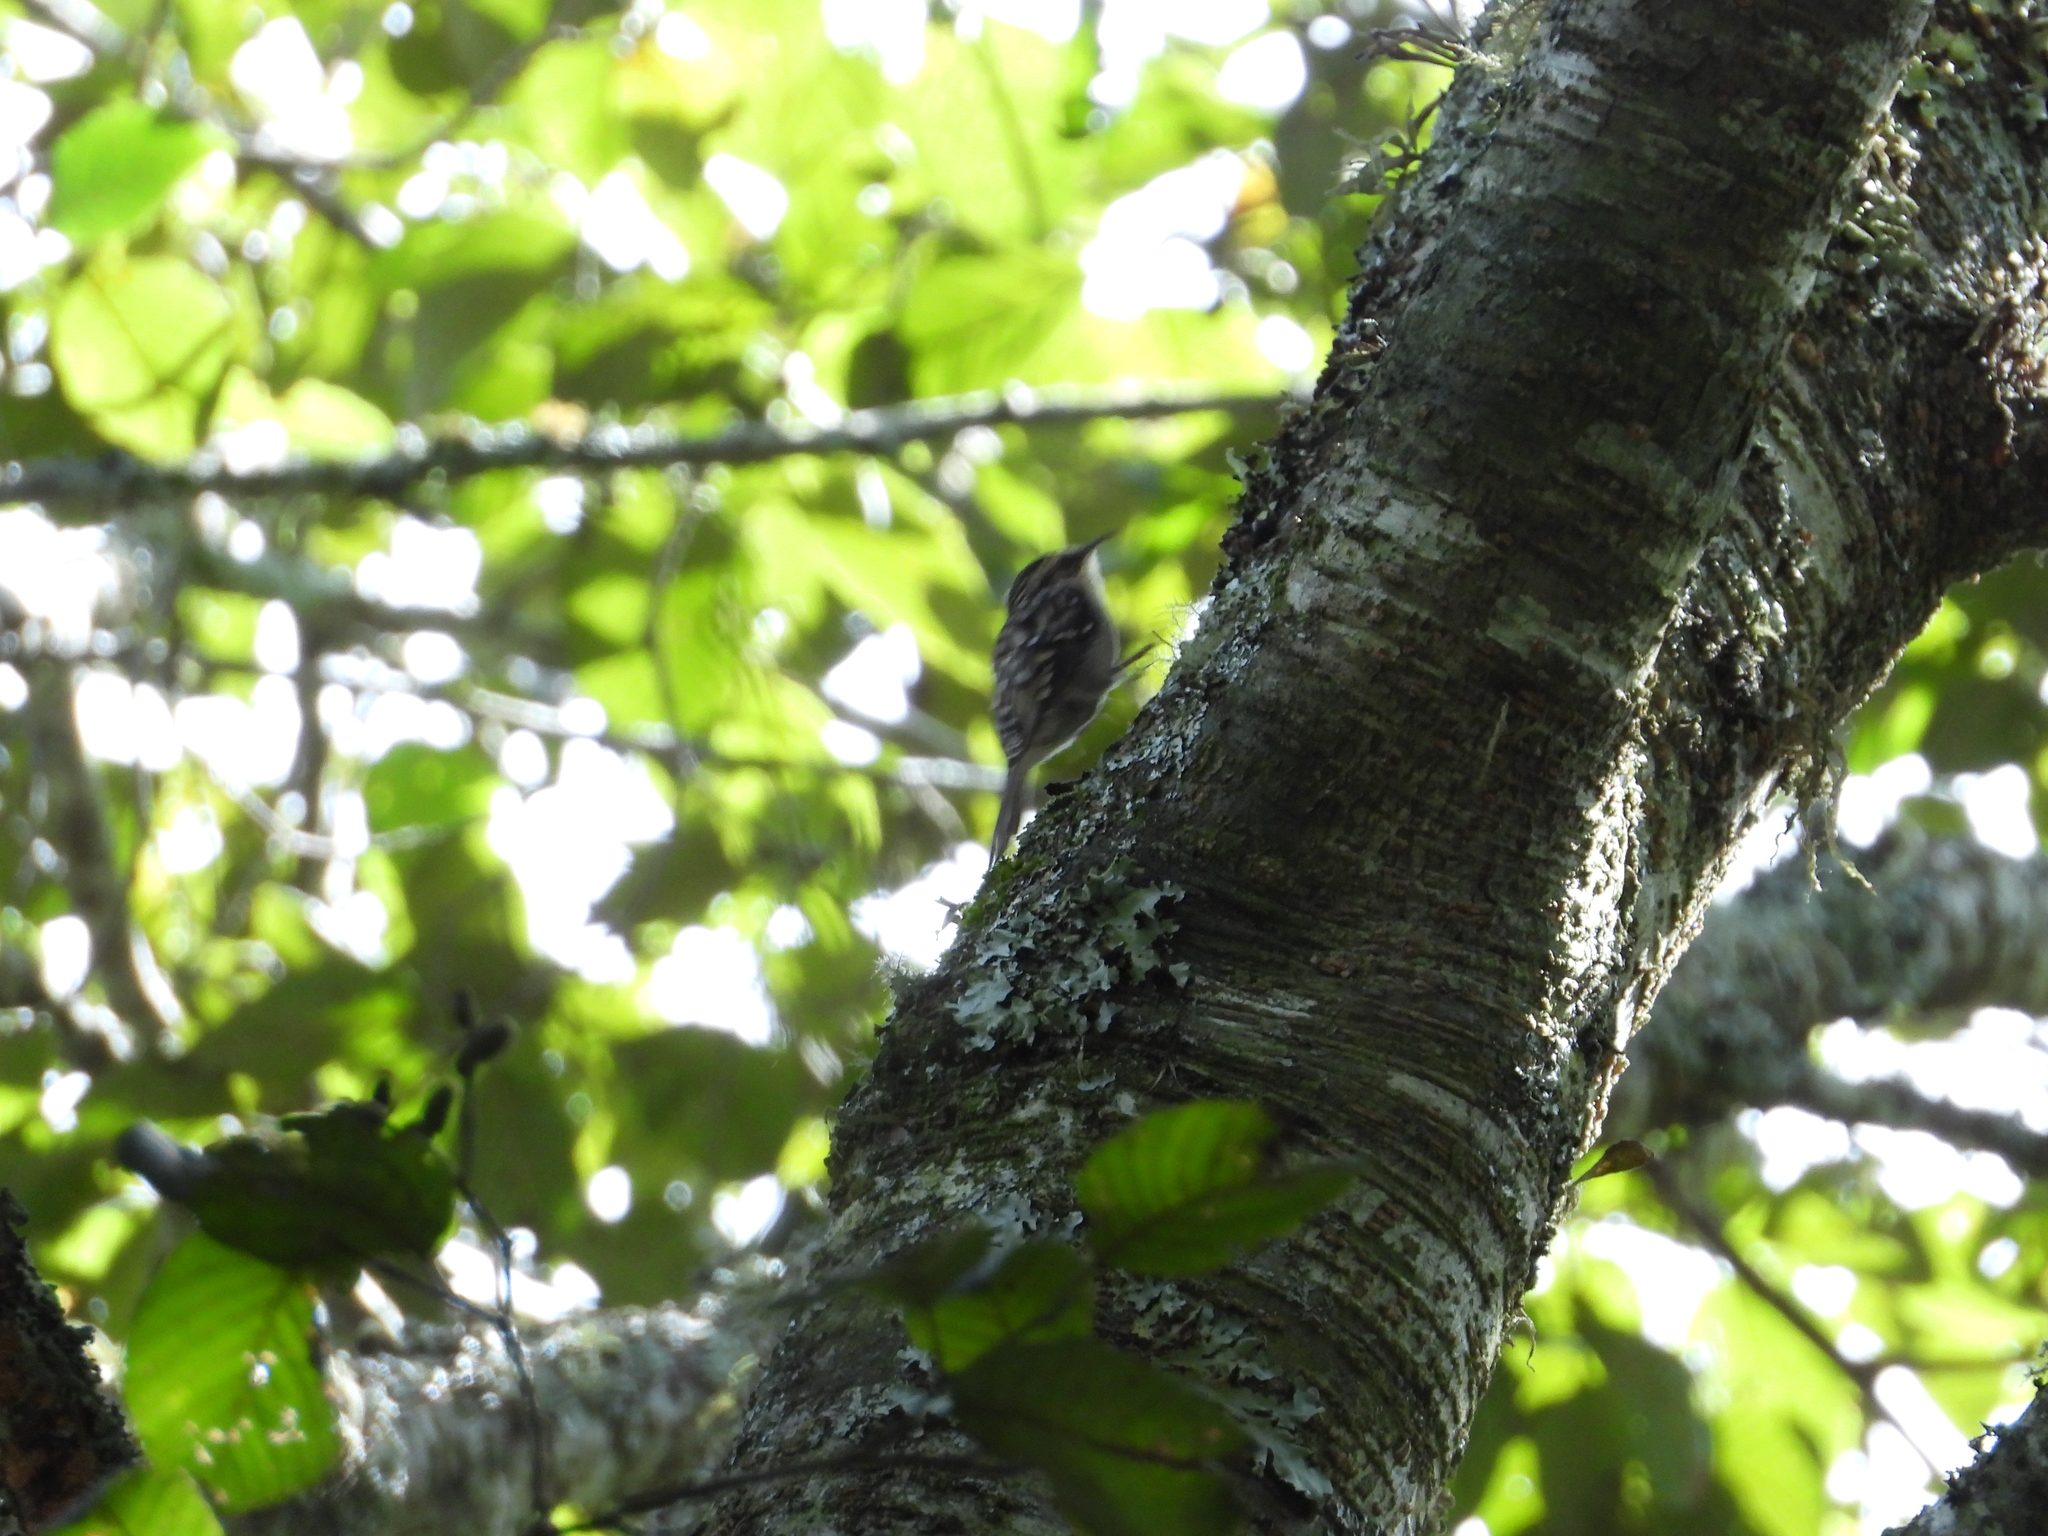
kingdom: Animalia
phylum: Chordata
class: Aves
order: Passeriformes
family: Certhiidae
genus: Certhia
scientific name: Certhia americana
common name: Brown creeper
